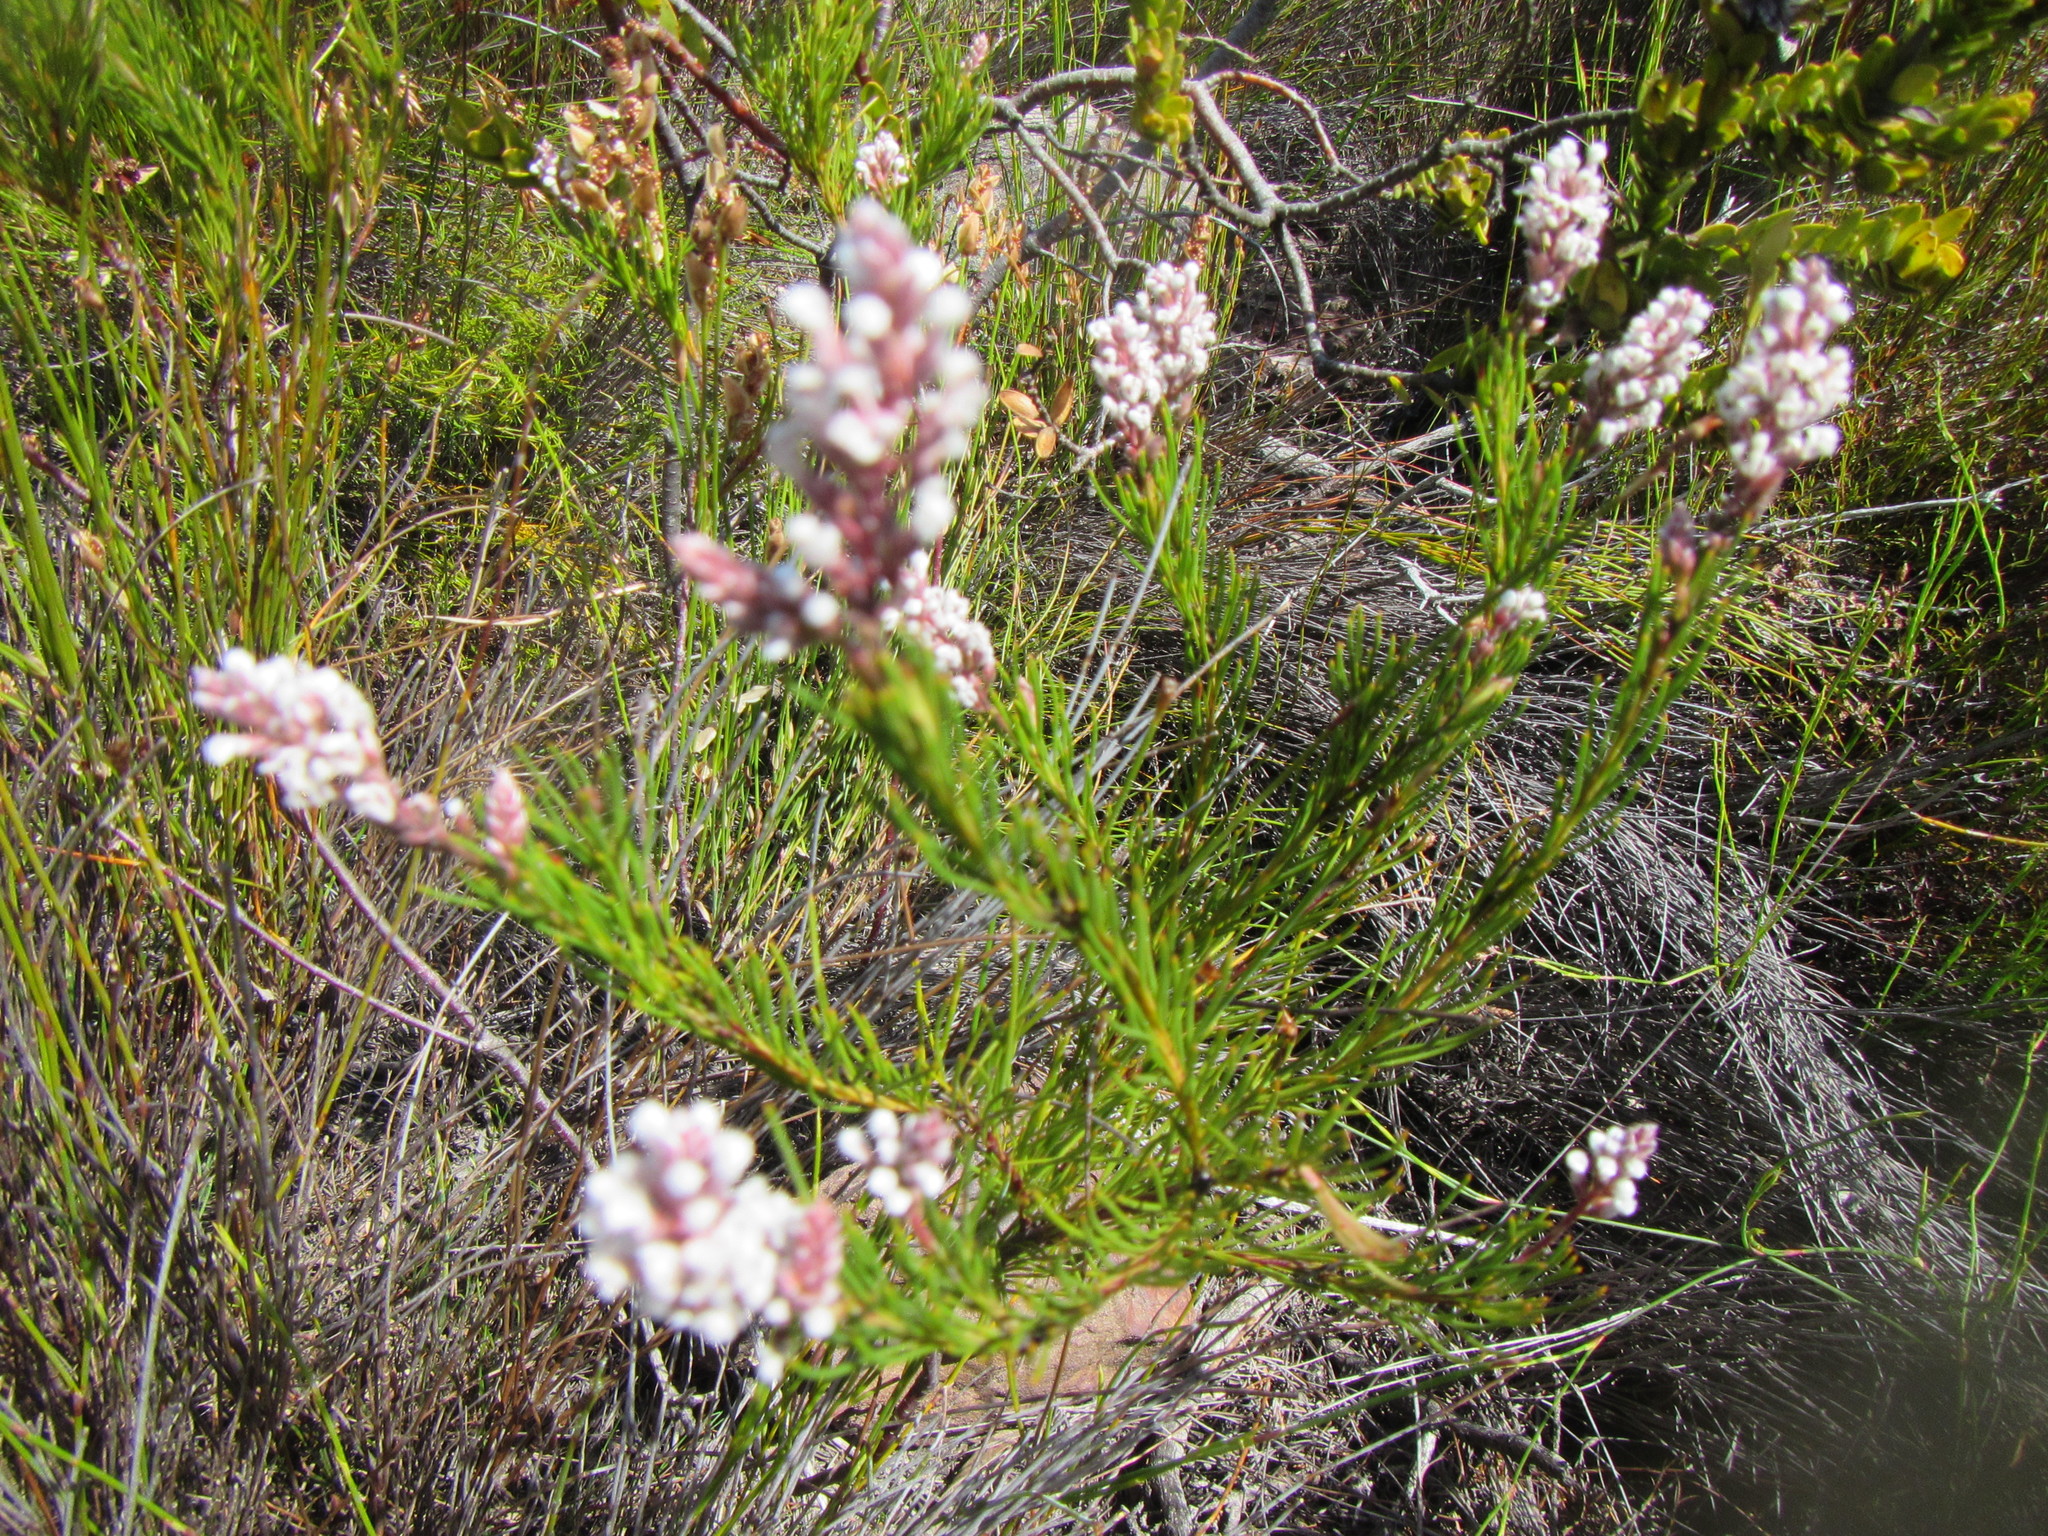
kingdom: Plantae
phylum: Tracheophyta
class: Magnoliopsida
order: Proteales
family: Proteaceae
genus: Spatalla
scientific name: Spatalla racemosa
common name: Lax-stalked spoon
